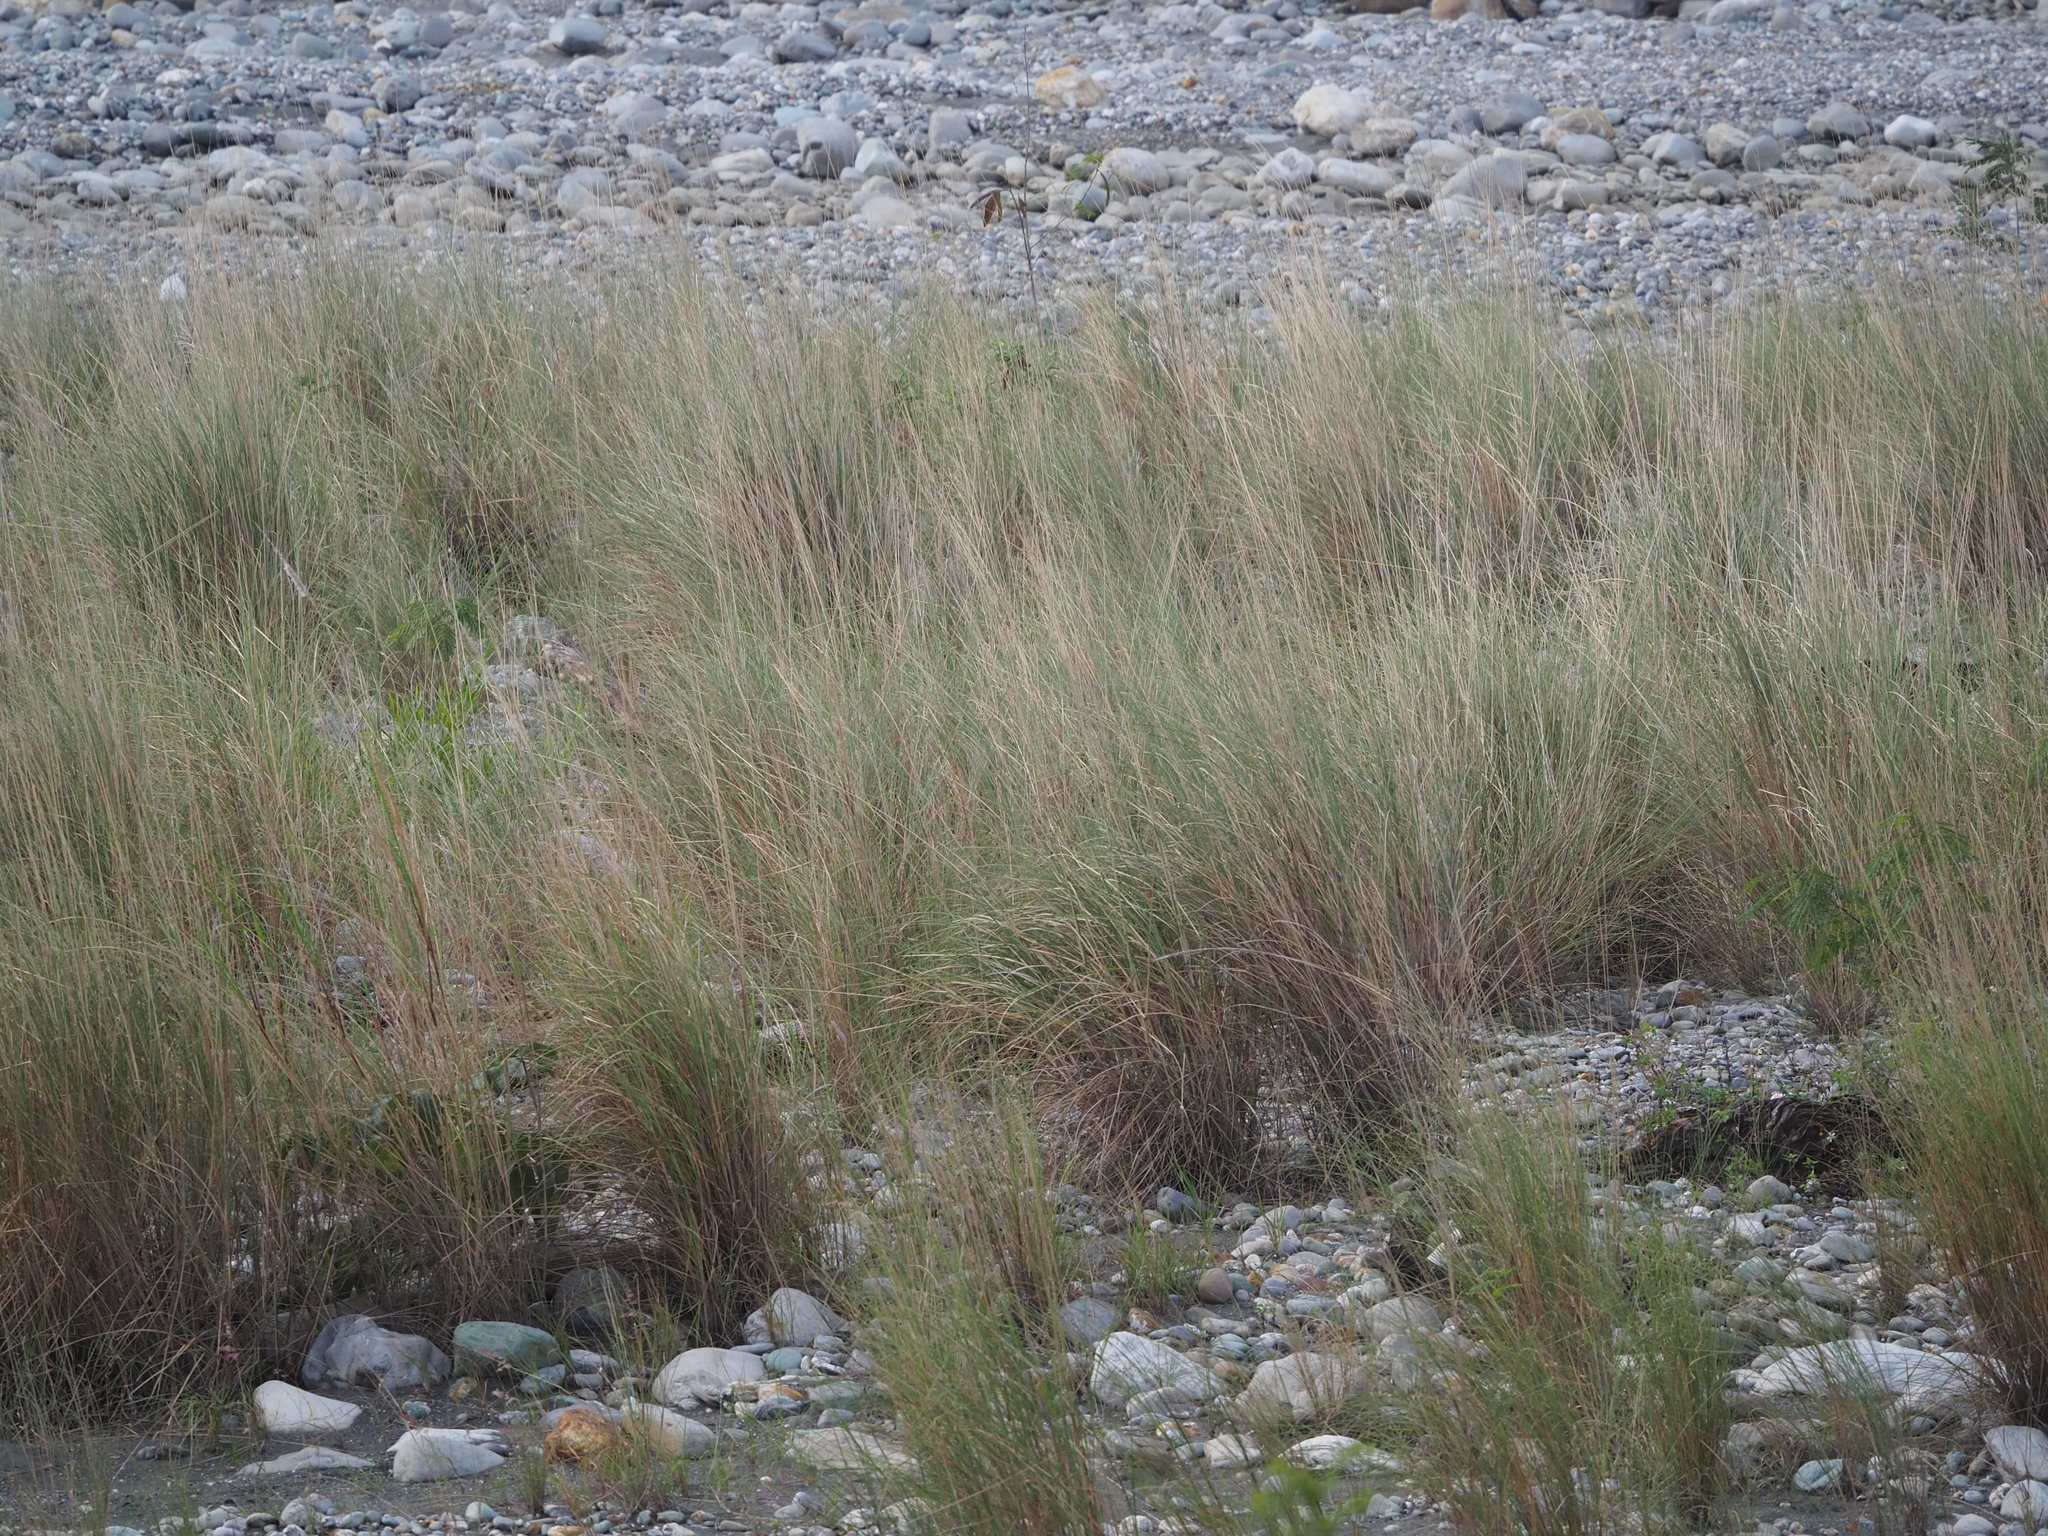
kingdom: Plantae
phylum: Tracheophyta
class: Liliopsida
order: Poales
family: Poaceae
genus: Saccharum
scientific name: Saccharum spontaneum
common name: Wild sugarcane
